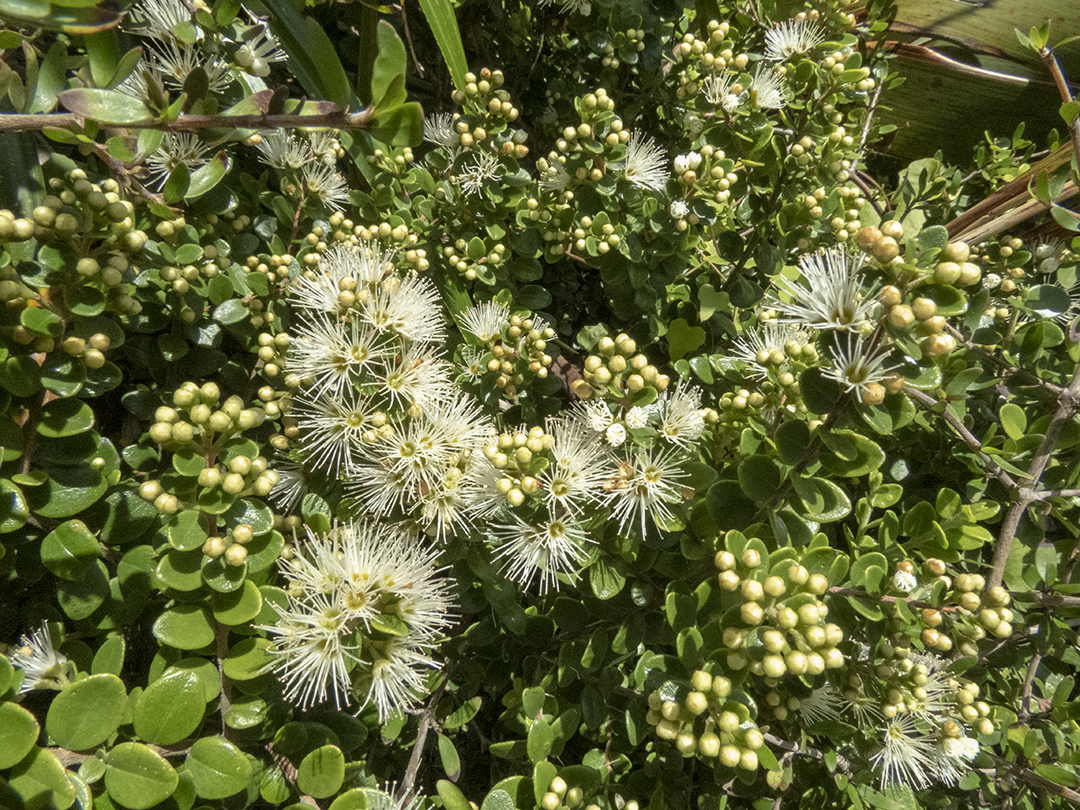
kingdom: Plantae
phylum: Tracheophyta
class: Magnoliopsida
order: Myrtales
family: Myrtaceae
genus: Metrosideros
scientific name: Metrosideros perforata
